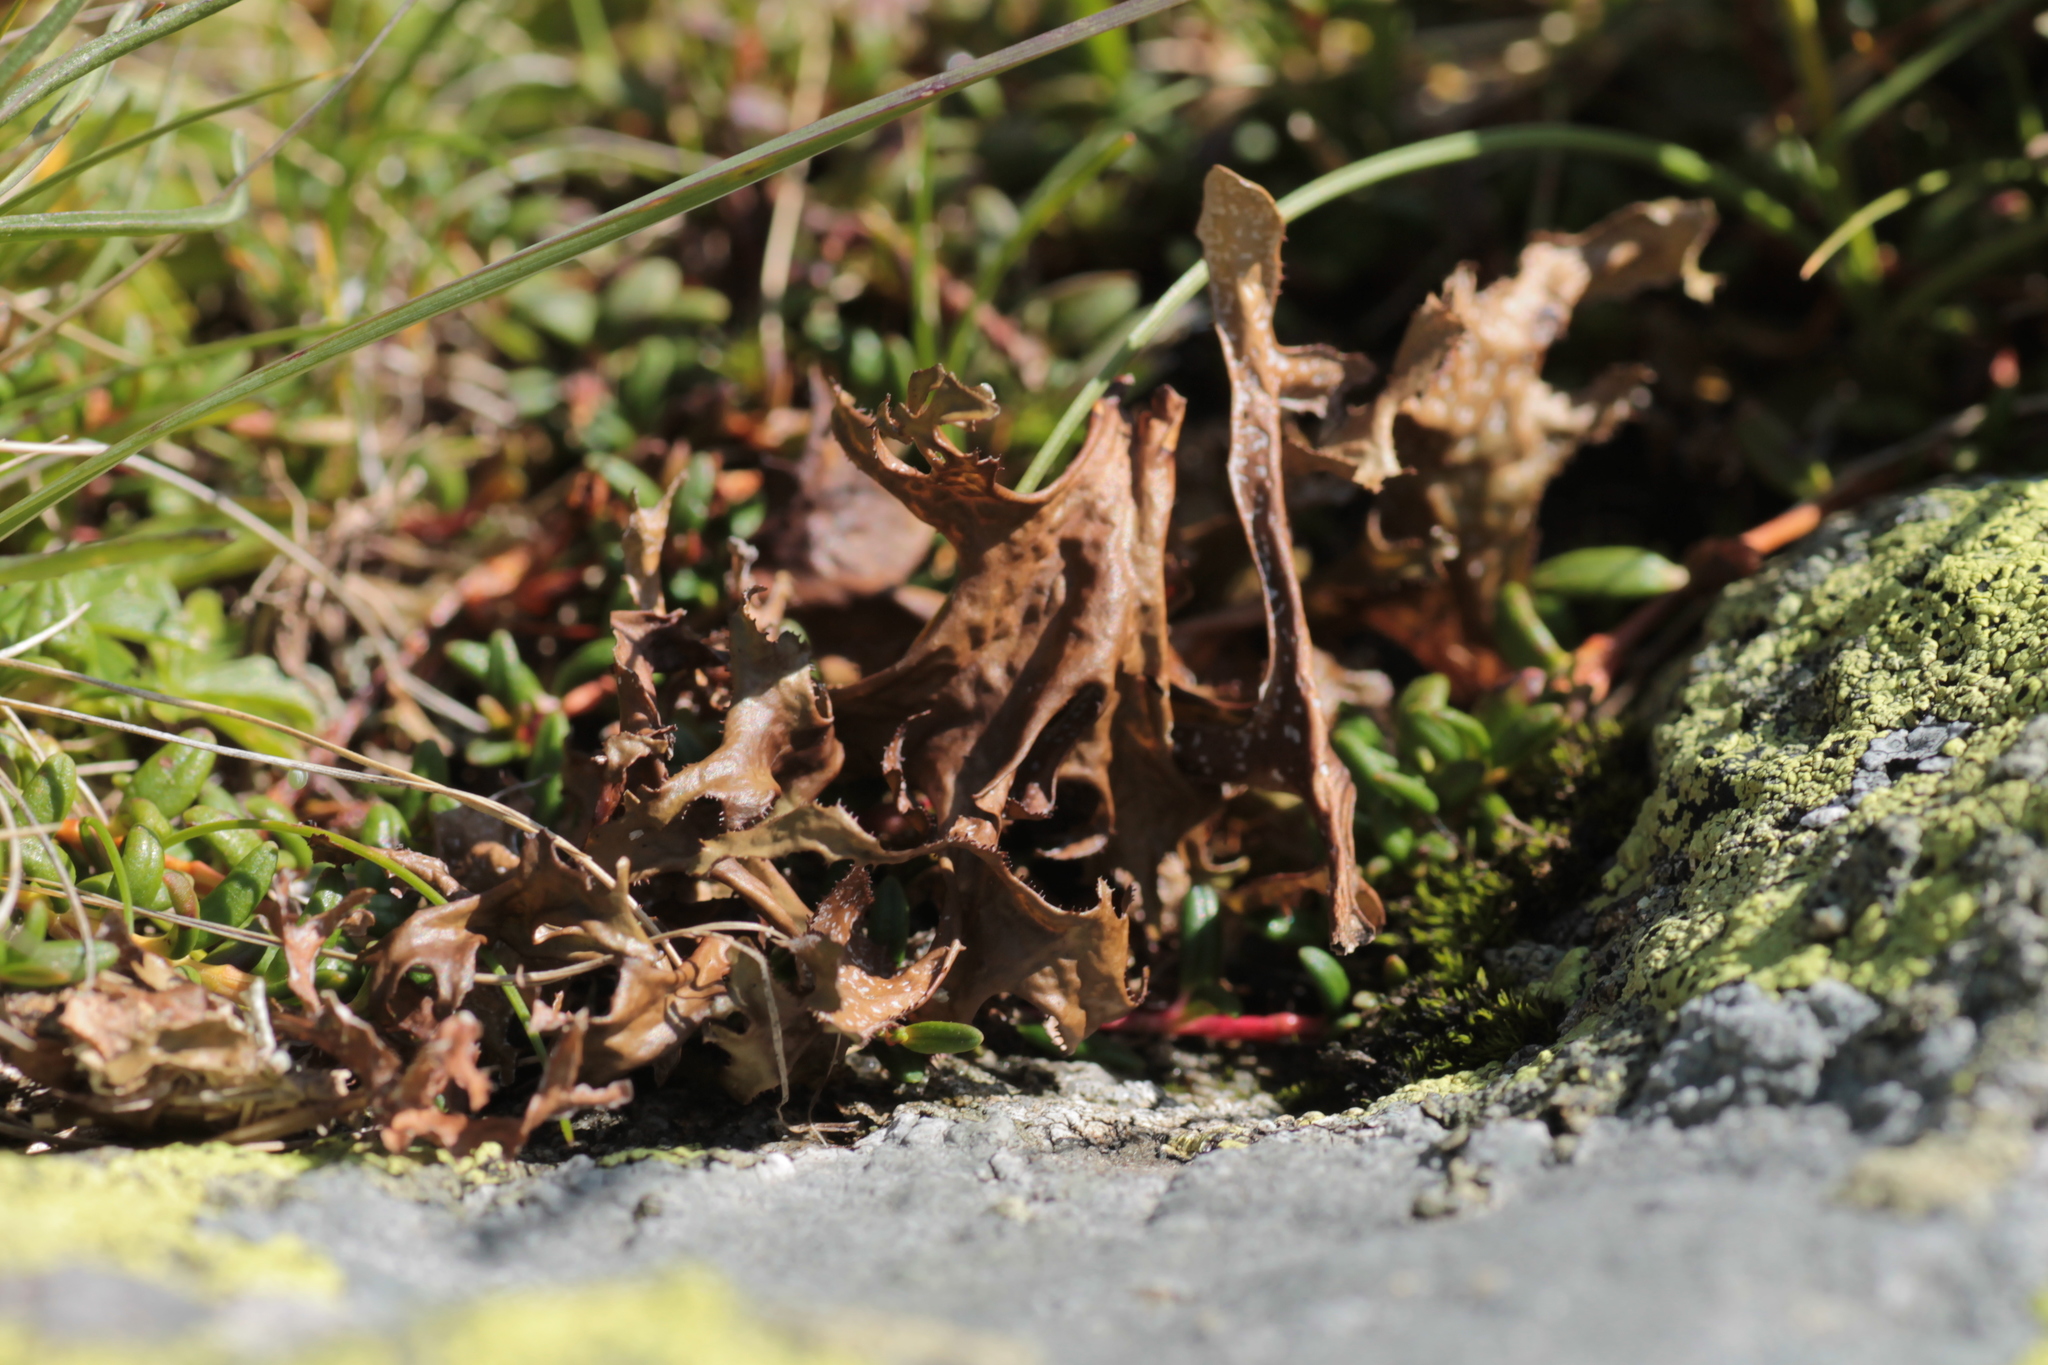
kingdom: Fungi
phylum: Ascomycota
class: Lecanoromycetes
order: Lecanorales
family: Parmeliaceae
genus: Cetraria
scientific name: Cetraria islandica
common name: Iceland lichen
